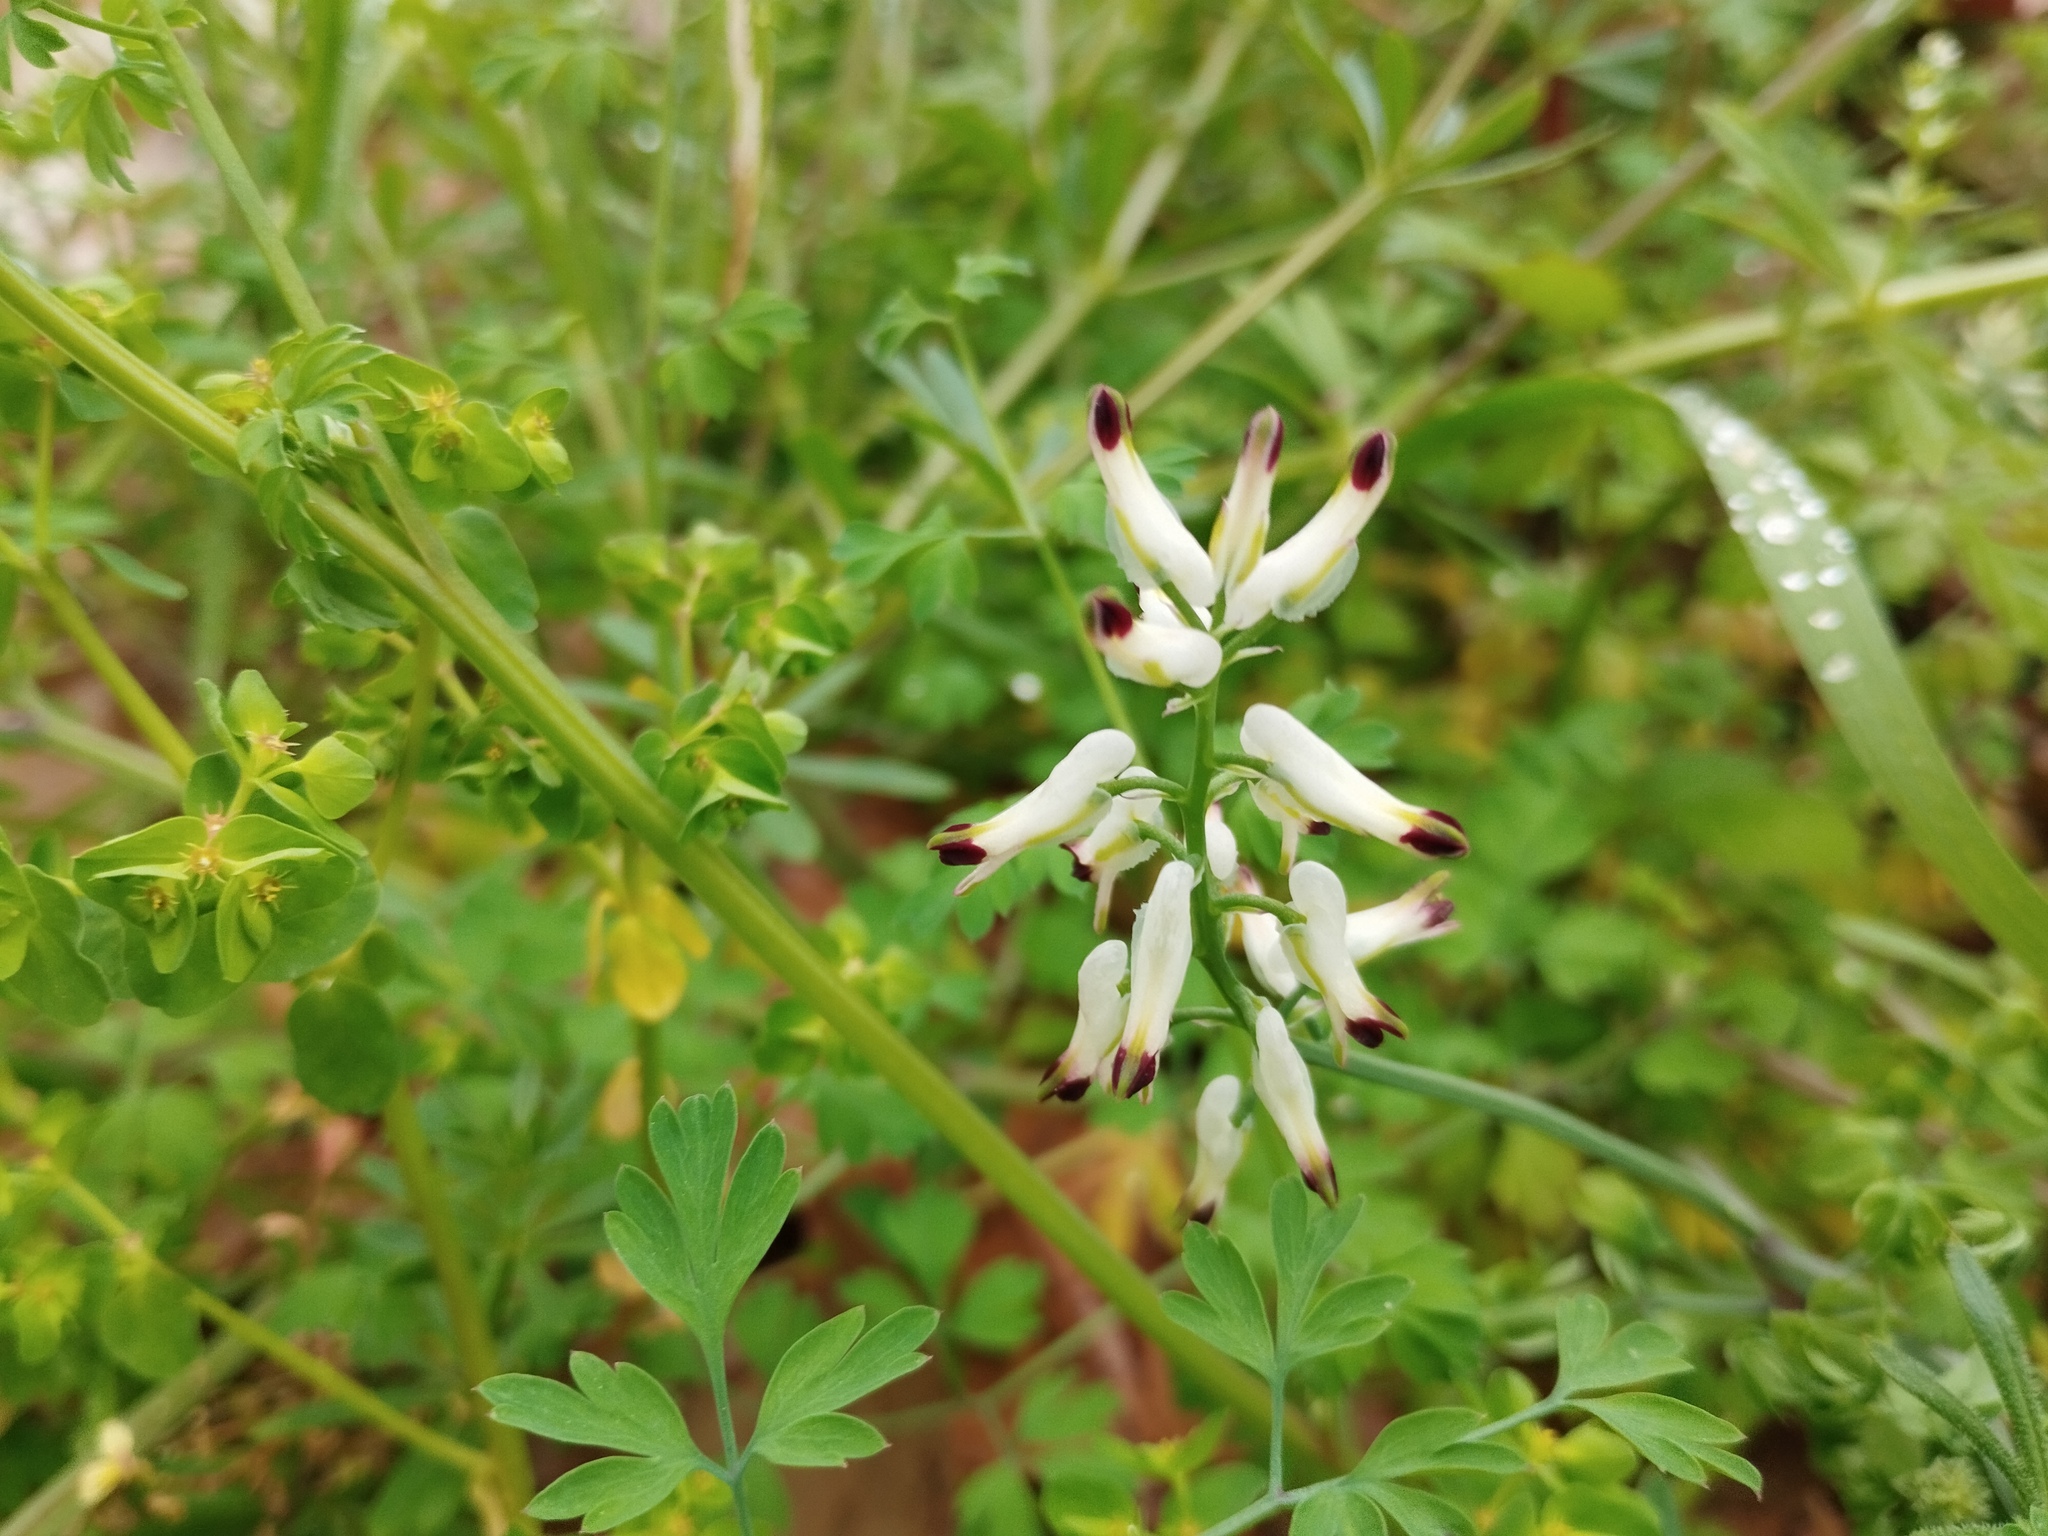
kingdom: Plantae
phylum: Tracheophyta
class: Magnoliopsida
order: Ranunculales
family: Papaveraceae
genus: Fumaria
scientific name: Fumaria capreolata
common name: White ramping-fumitory
